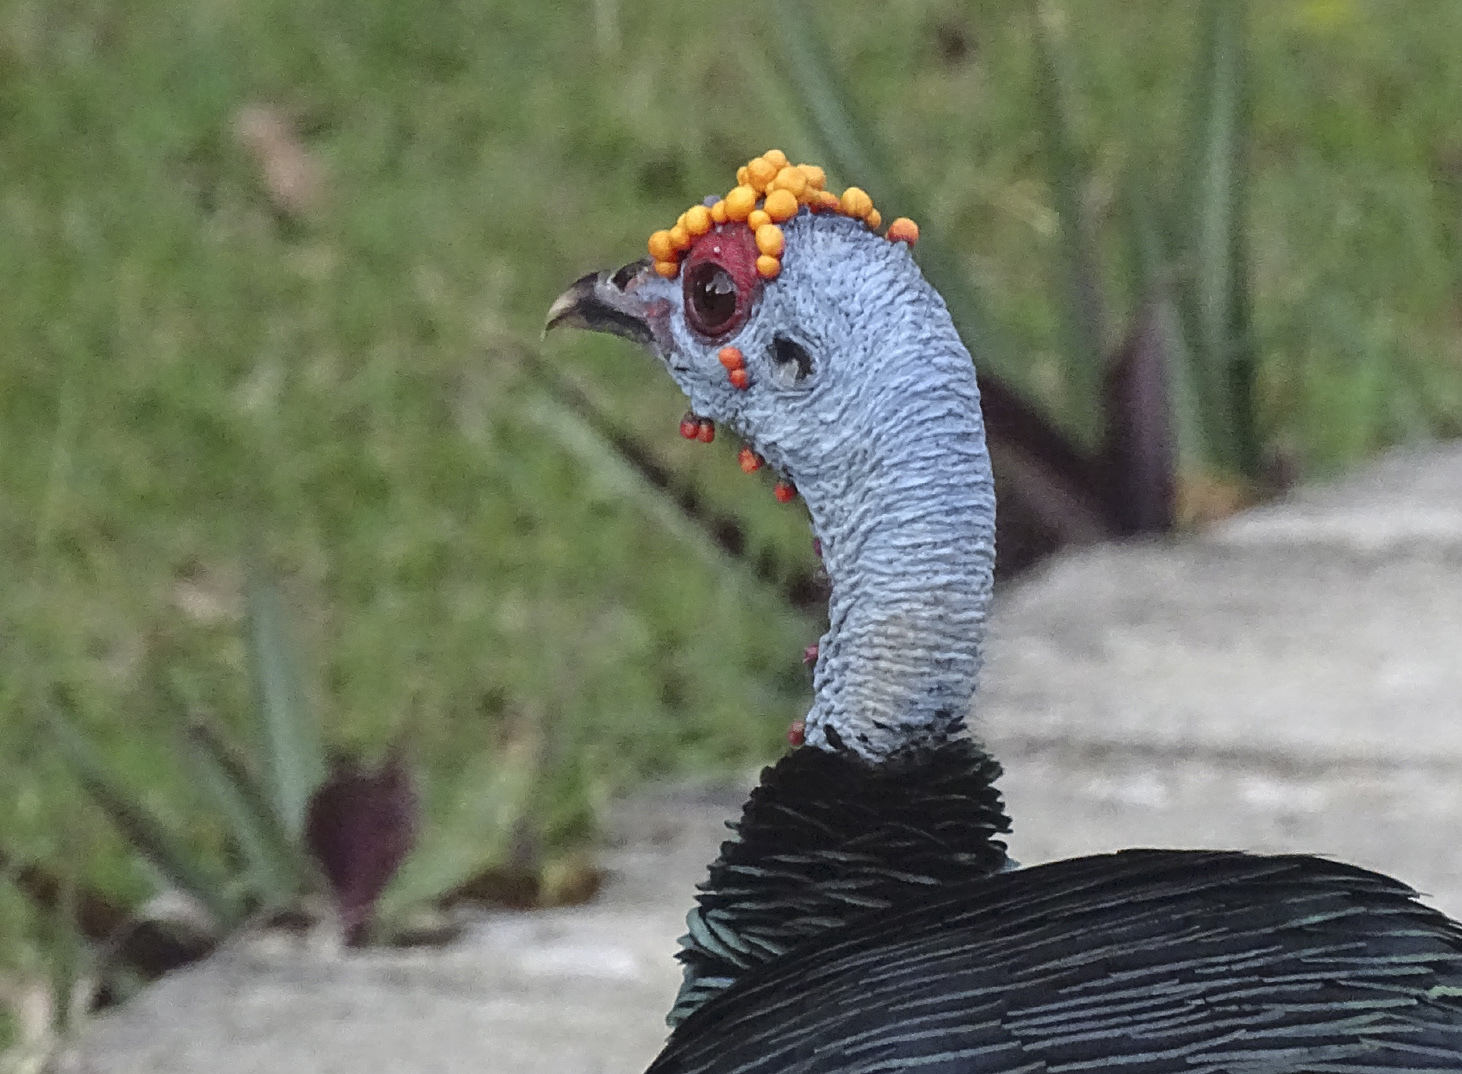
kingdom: Animalia
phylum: Chordata
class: Aves
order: Galliformes
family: Phasianidae
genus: Meleagris
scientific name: Meleagris ocellata
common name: Ocellated turkey
